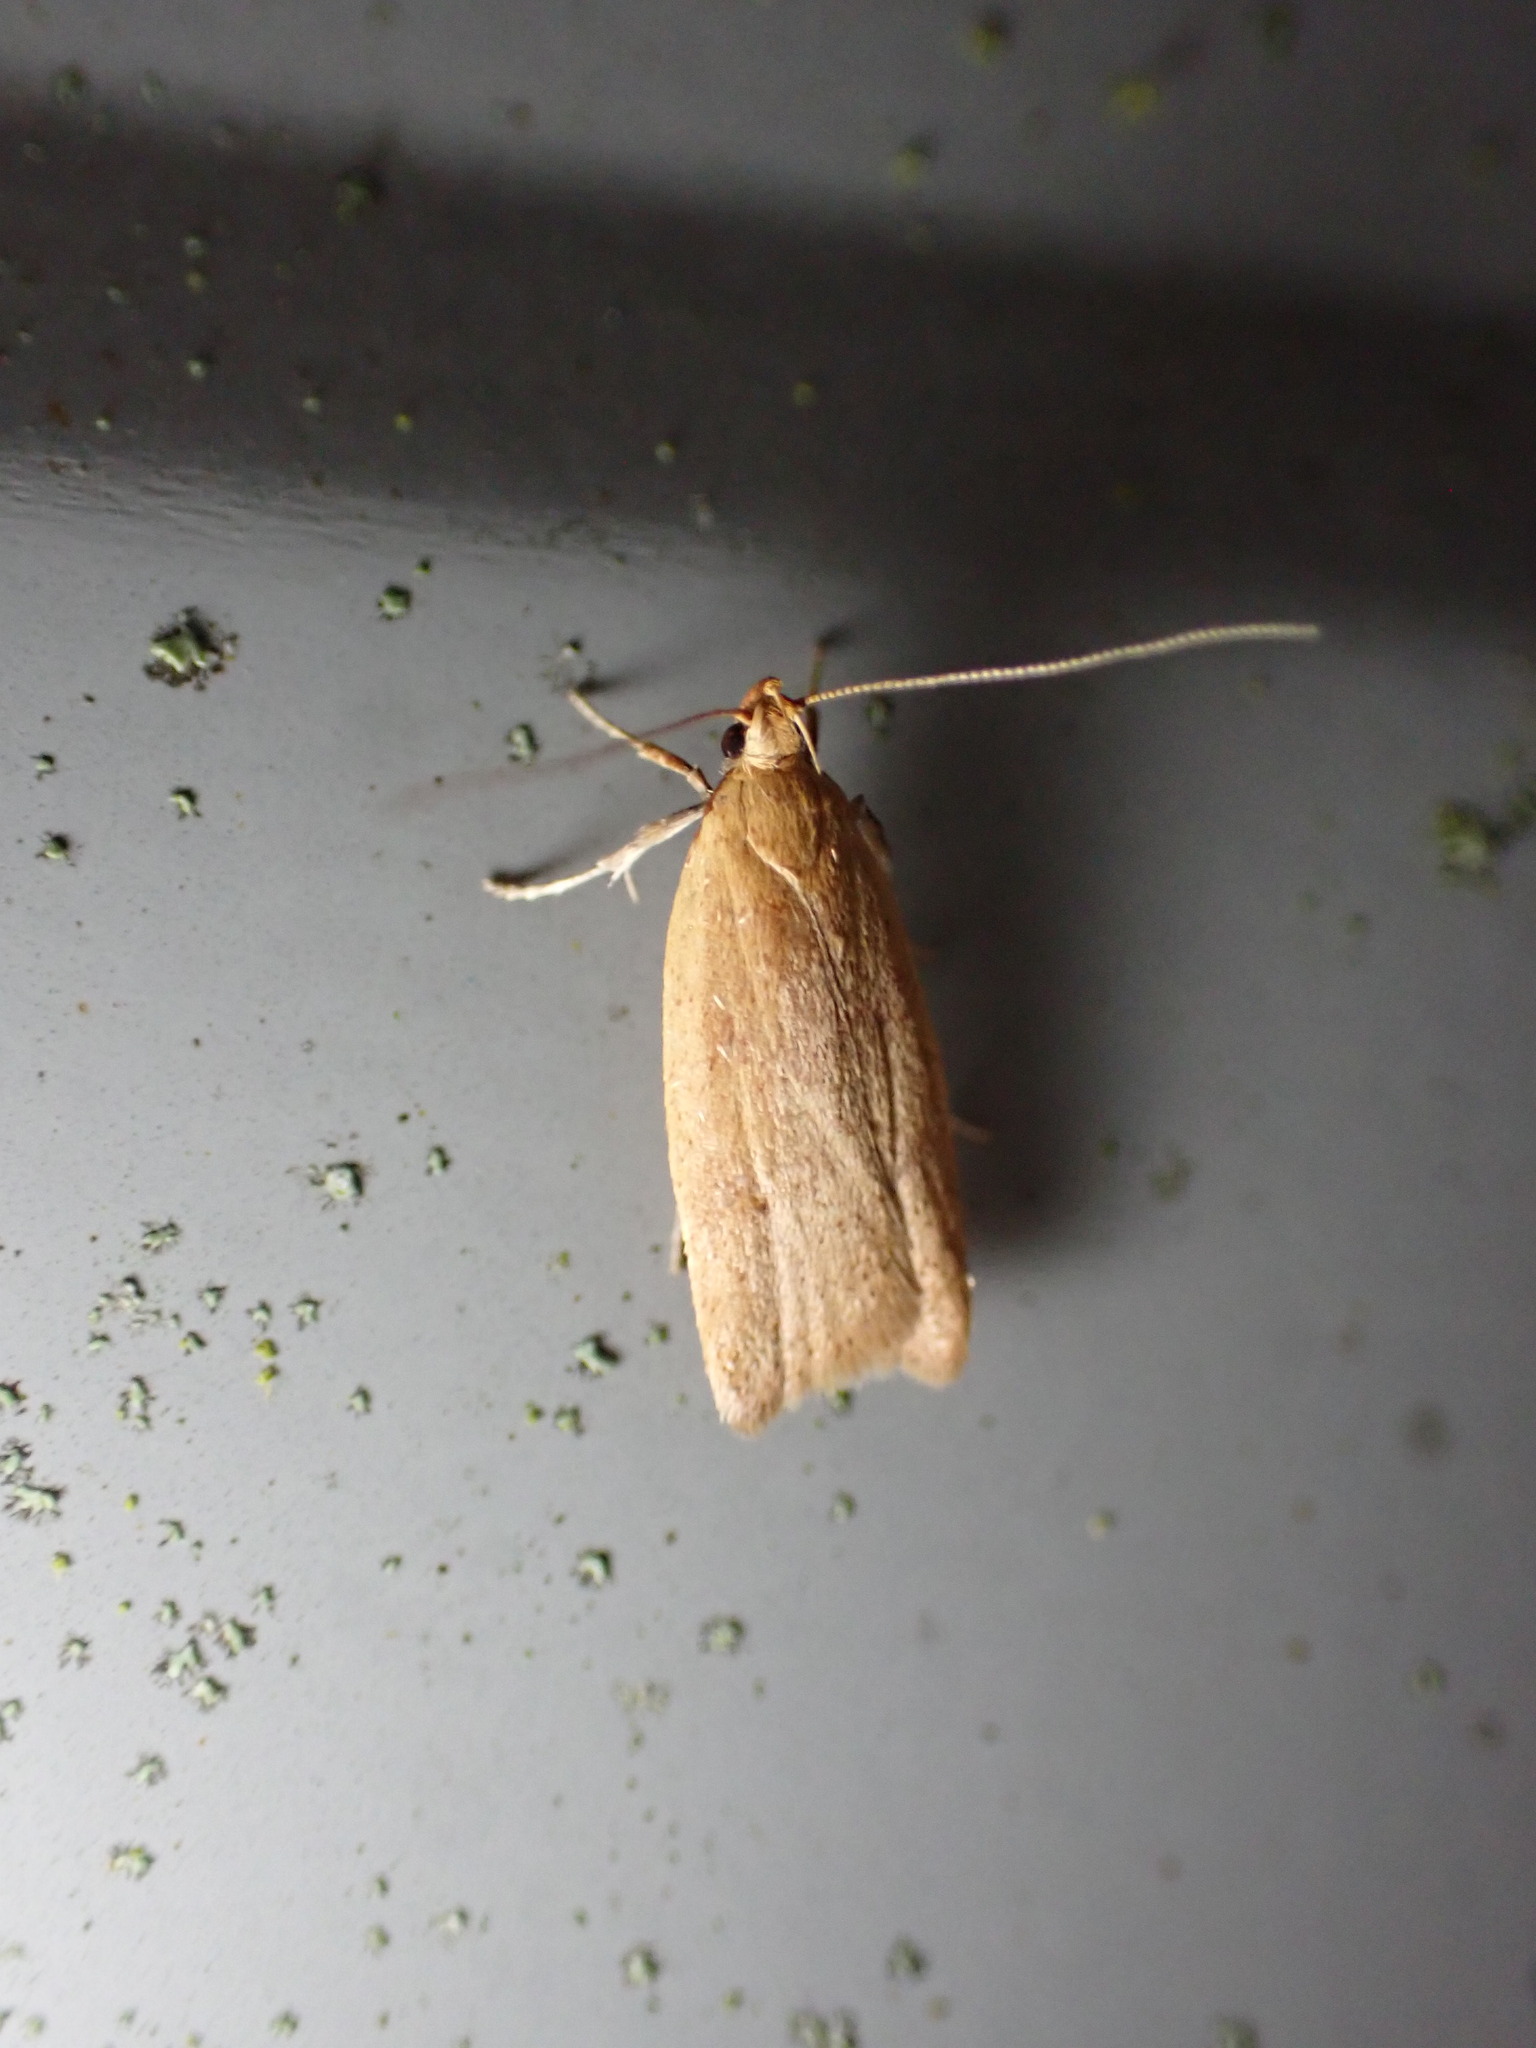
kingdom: Animalia
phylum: Arthropoda
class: Insecta
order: Lepidoptera
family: Oecophoridae
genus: Gymnobathra
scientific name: Gymnobathra sarcoxantha
